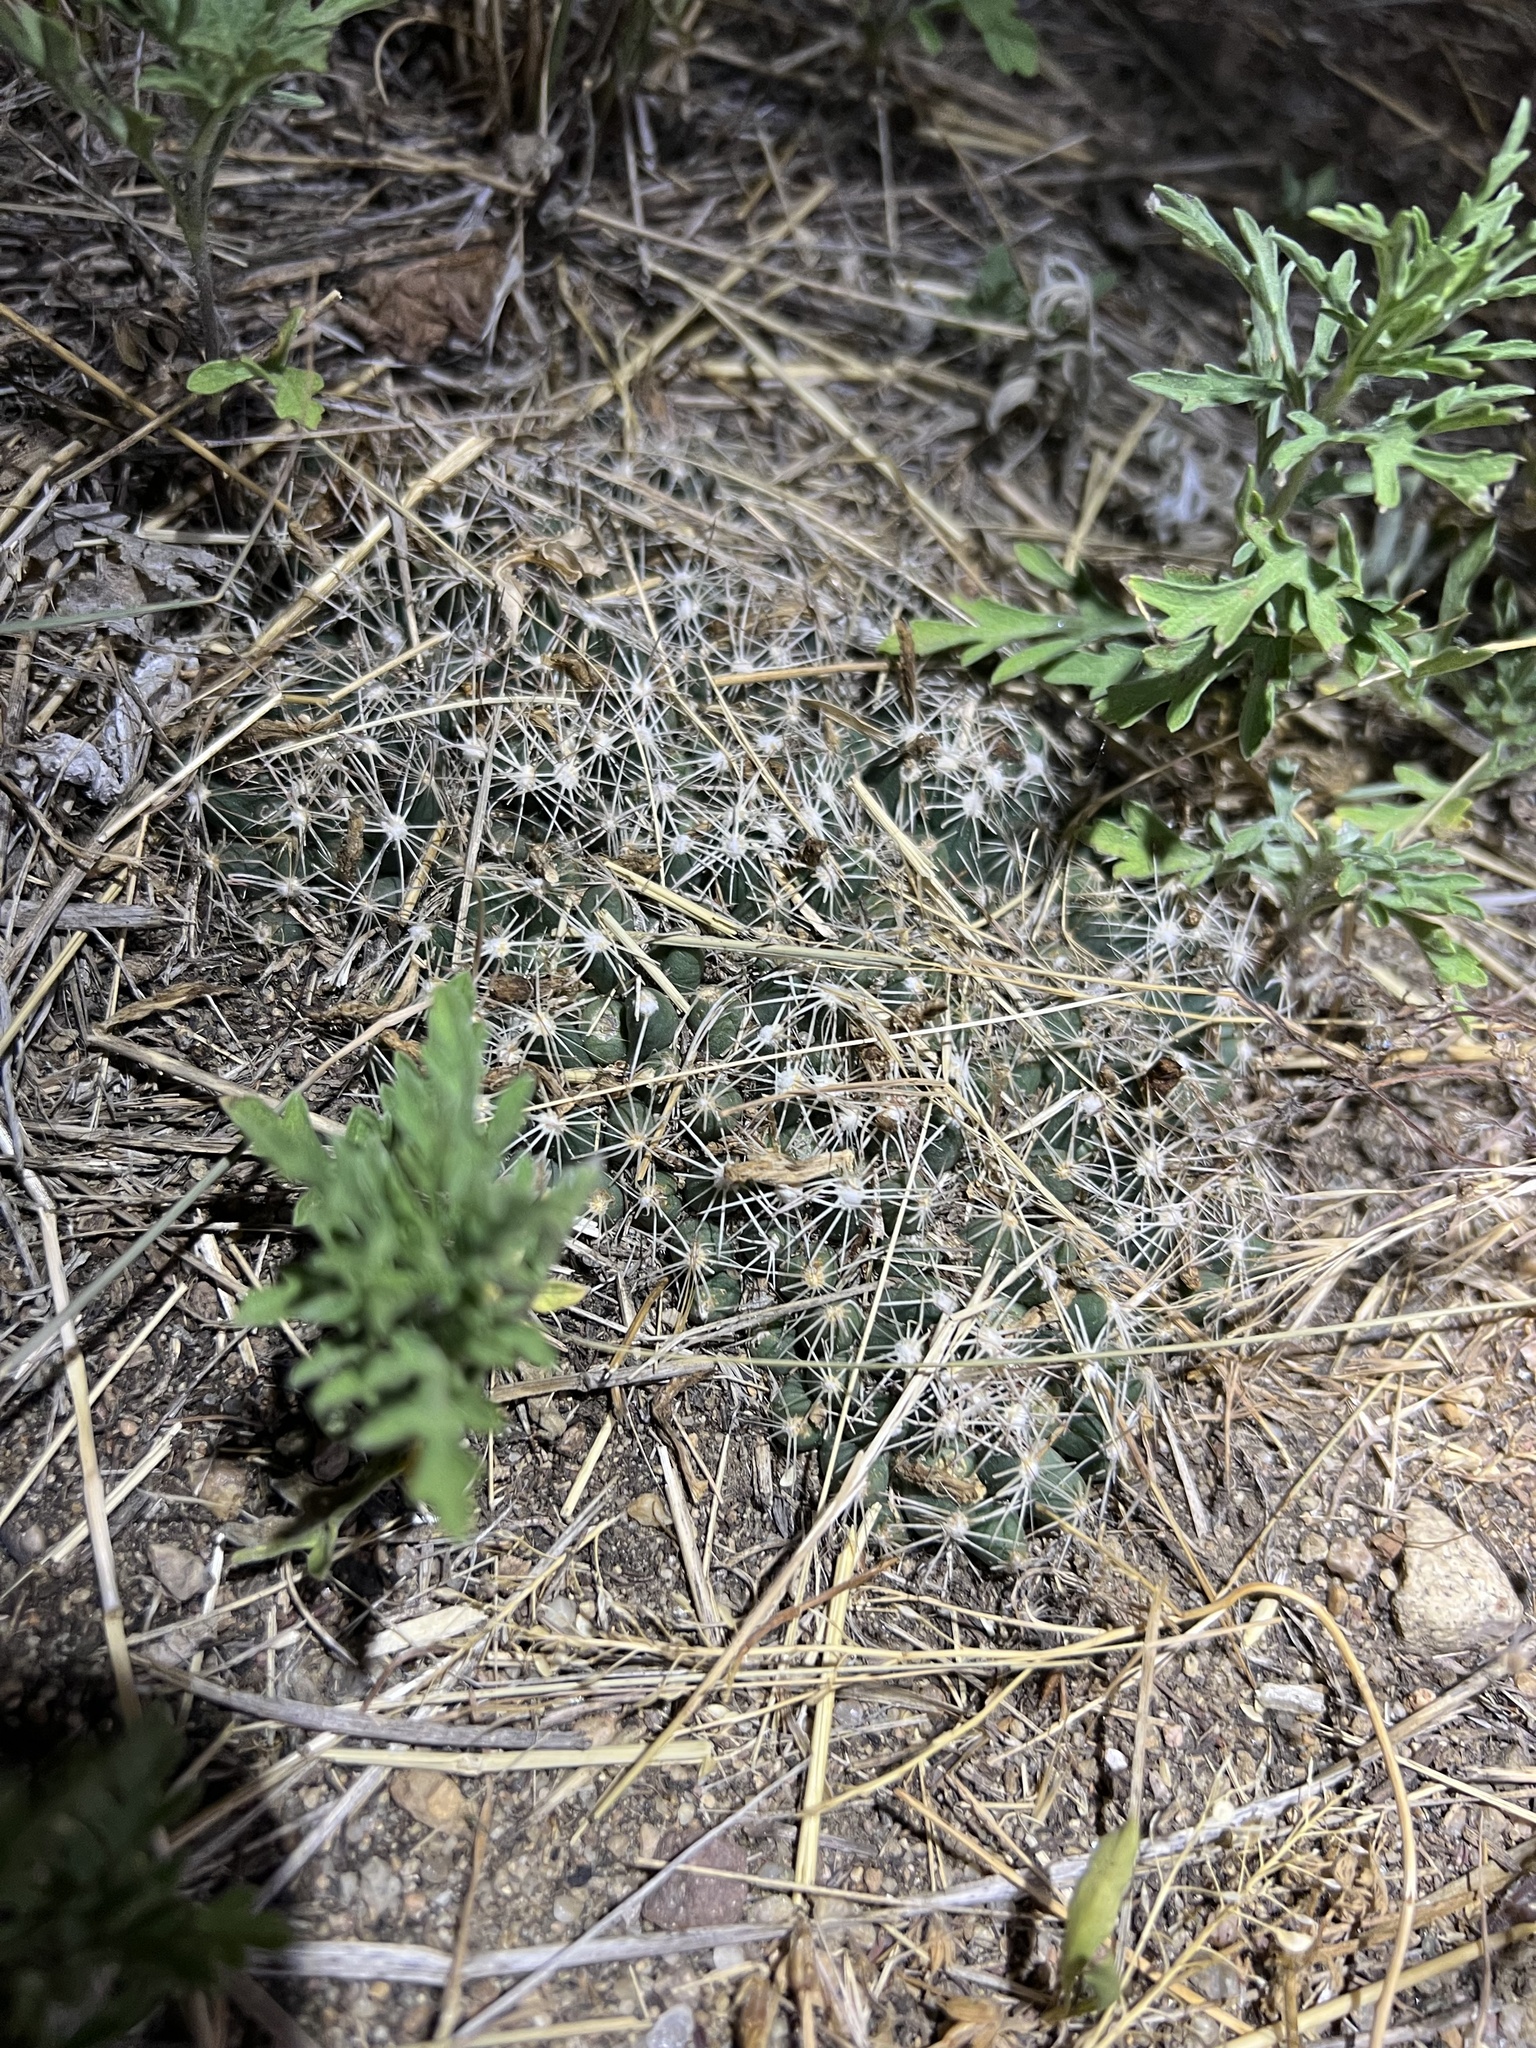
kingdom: Plantae
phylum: Tracheophyta
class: Magnoliopsida
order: Caryophyllales
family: Cactaceae
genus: Pelecyphora
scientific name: Pelecyphora missouriensis
